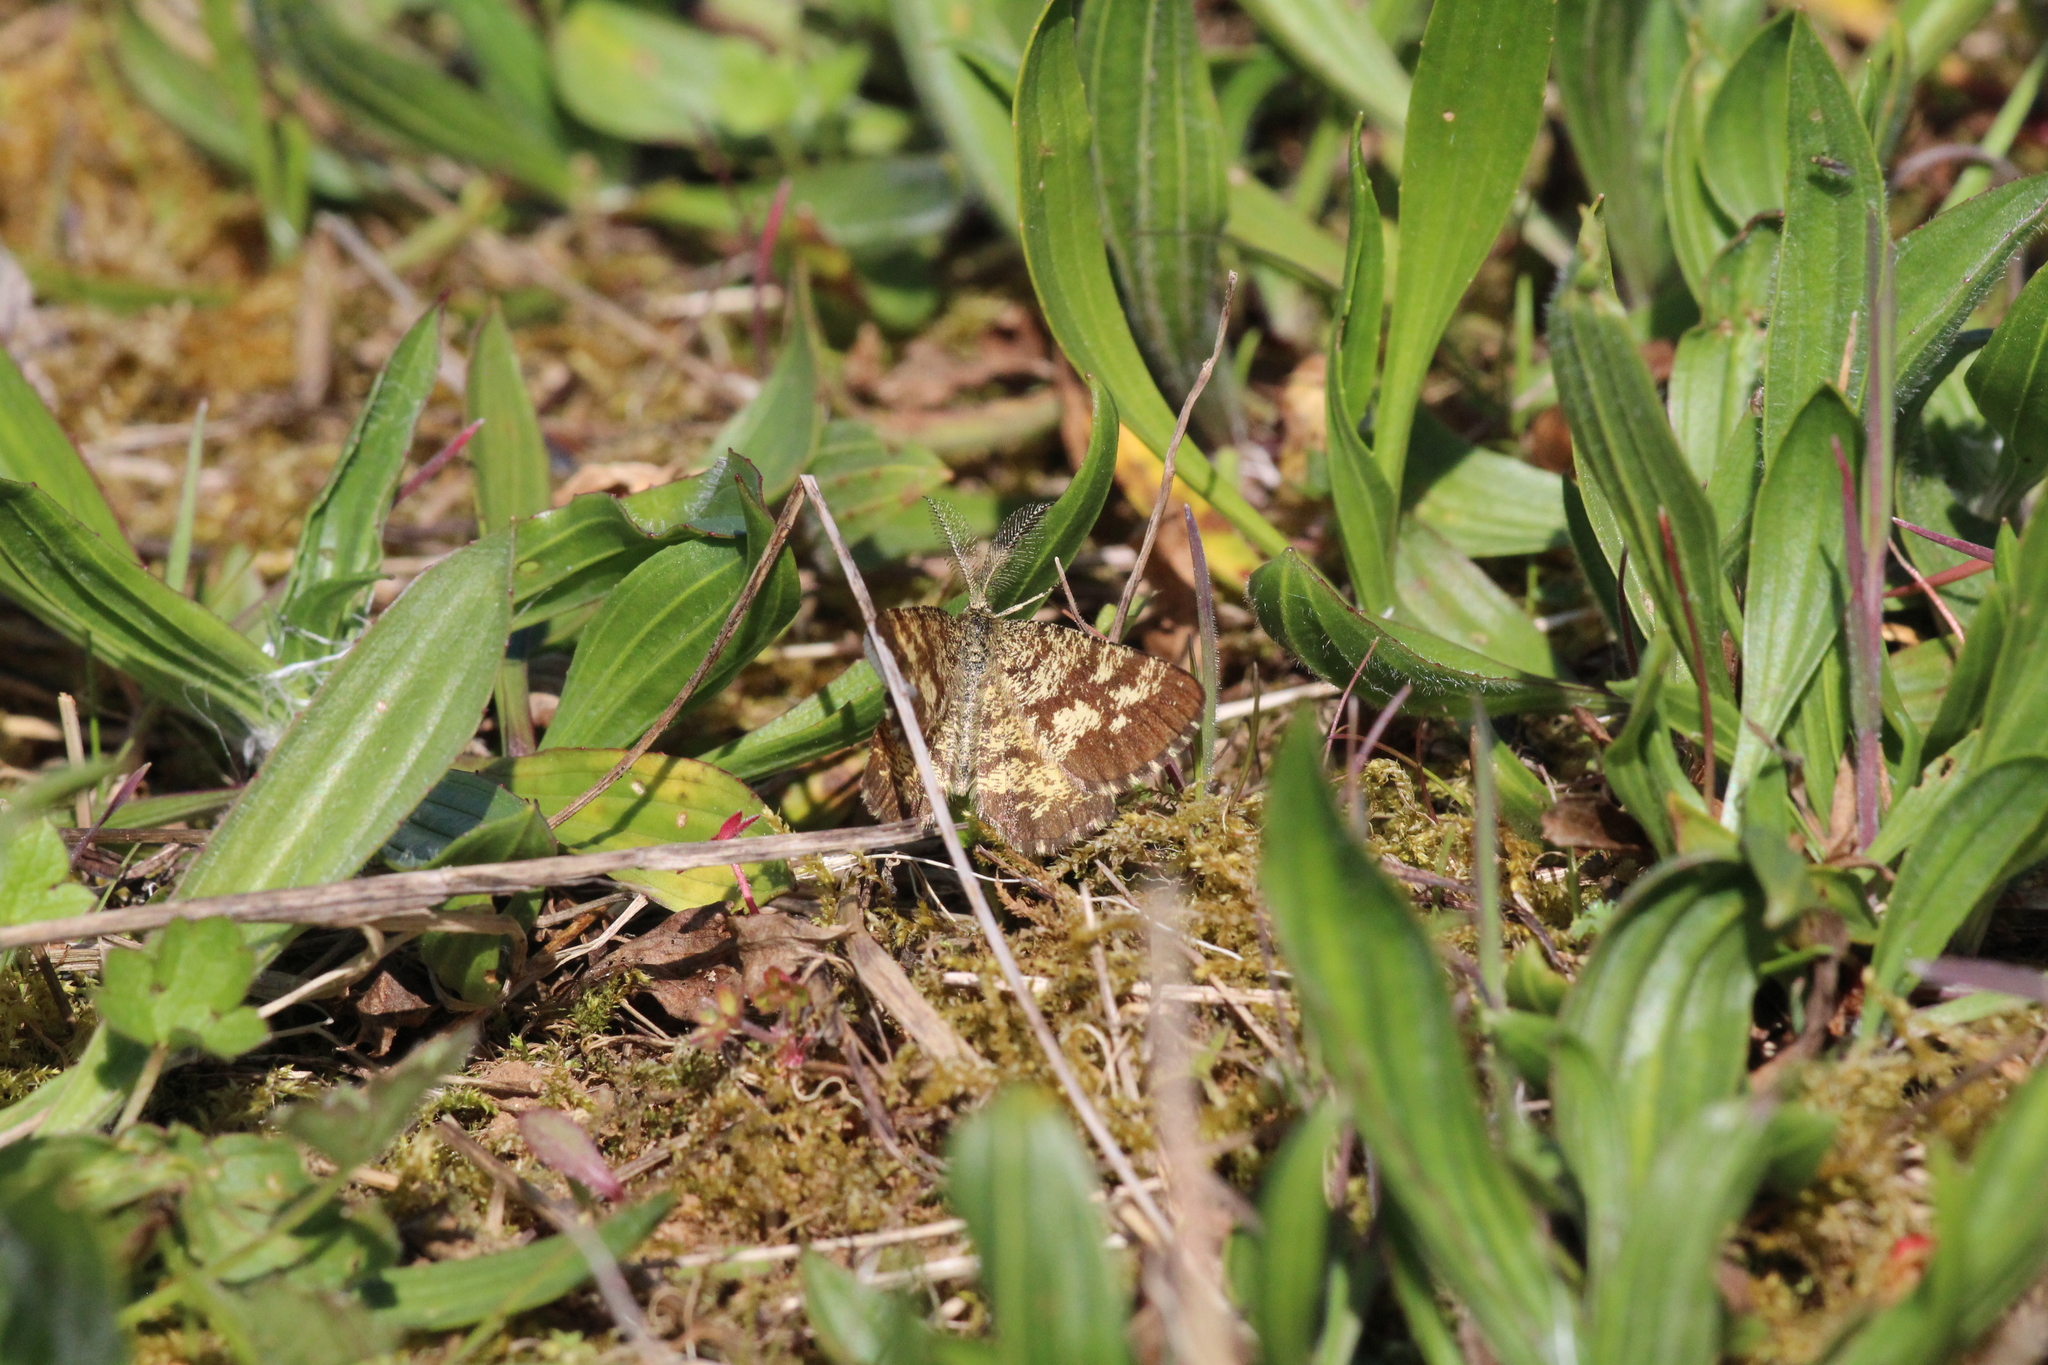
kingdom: Animalia
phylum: Arthropoda
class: Insecta
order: Lepidoptera
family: Geometridae
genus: Ematurga
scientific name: Ematurga atomaria
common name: Common heath
